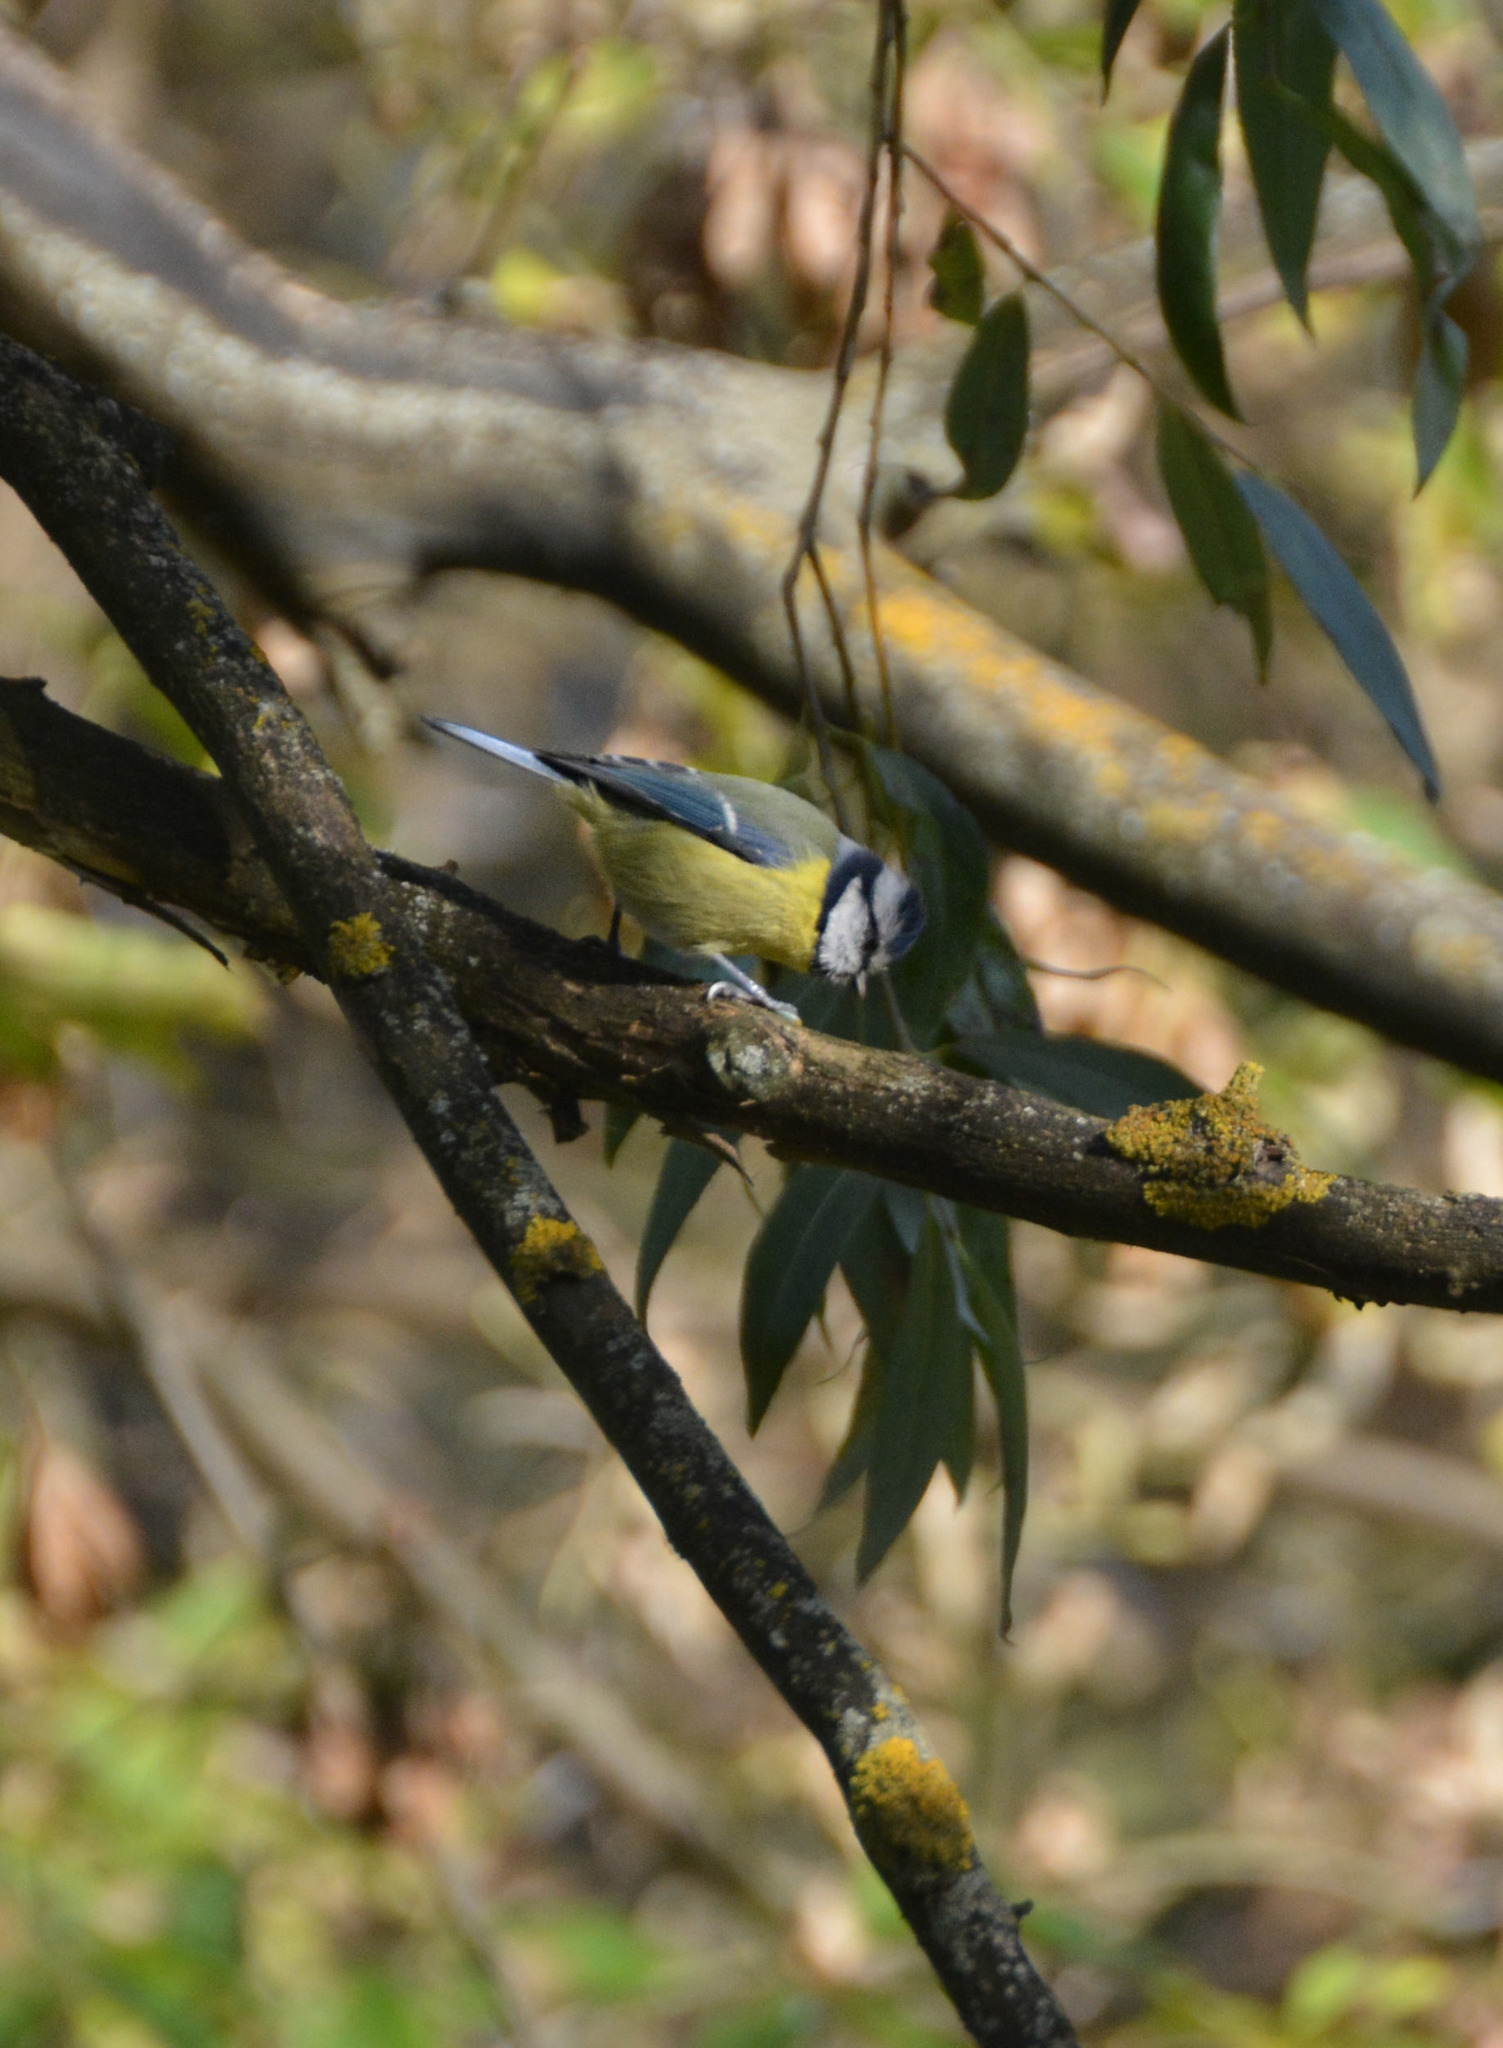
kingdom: Animalia
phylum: Chordata
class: Aves
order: Passeriformes
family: Paridae
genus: Cyanistes
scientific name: Cyanistes caeruleus
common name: Eurasian blue tit
